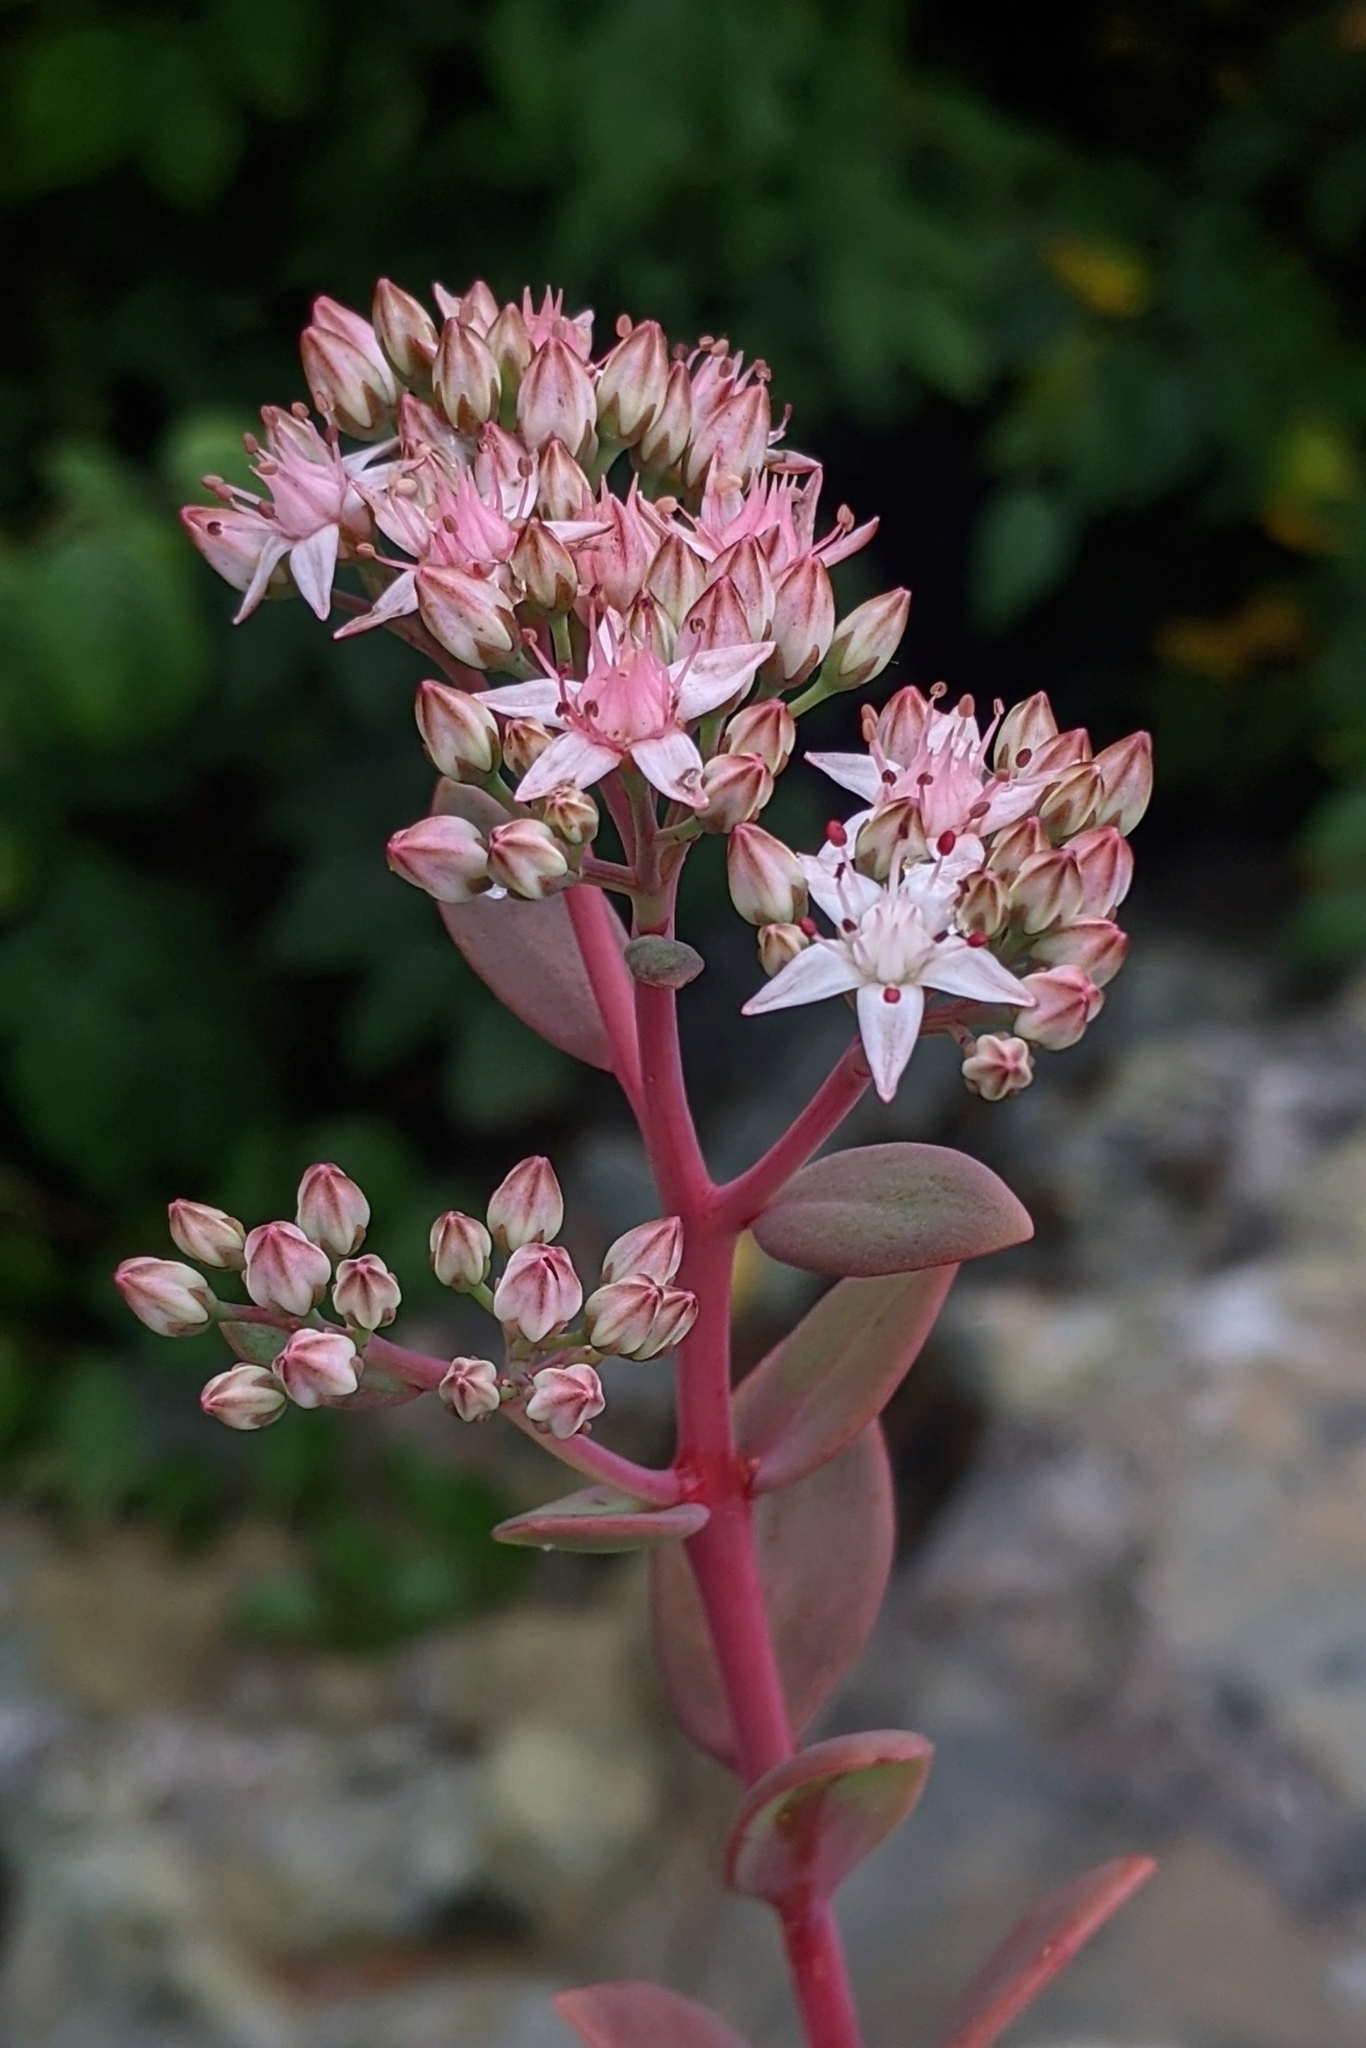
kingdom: Plantae
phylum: Tracheophyta
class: Magnoliopsida
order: Saxifragales
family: Crassulaceae
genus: Hylotelephium
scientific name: Hylotelephium telephioides
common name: Allegheny stonecrop
